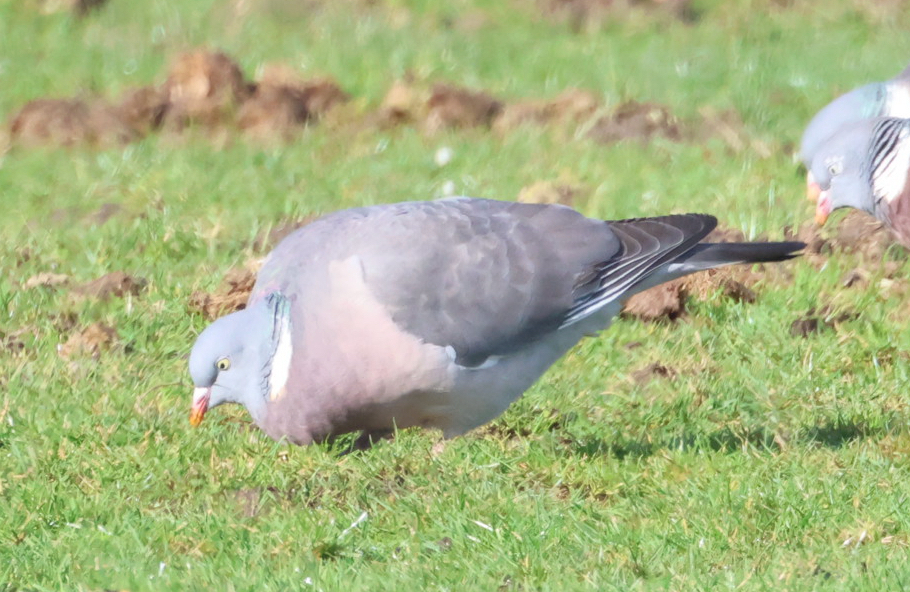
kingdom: Animalia
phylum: Chordata
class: Aves
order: Columbiformes
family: Columbidae
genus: Columba
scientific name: Columba palumbus
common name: Common wood pigeon
